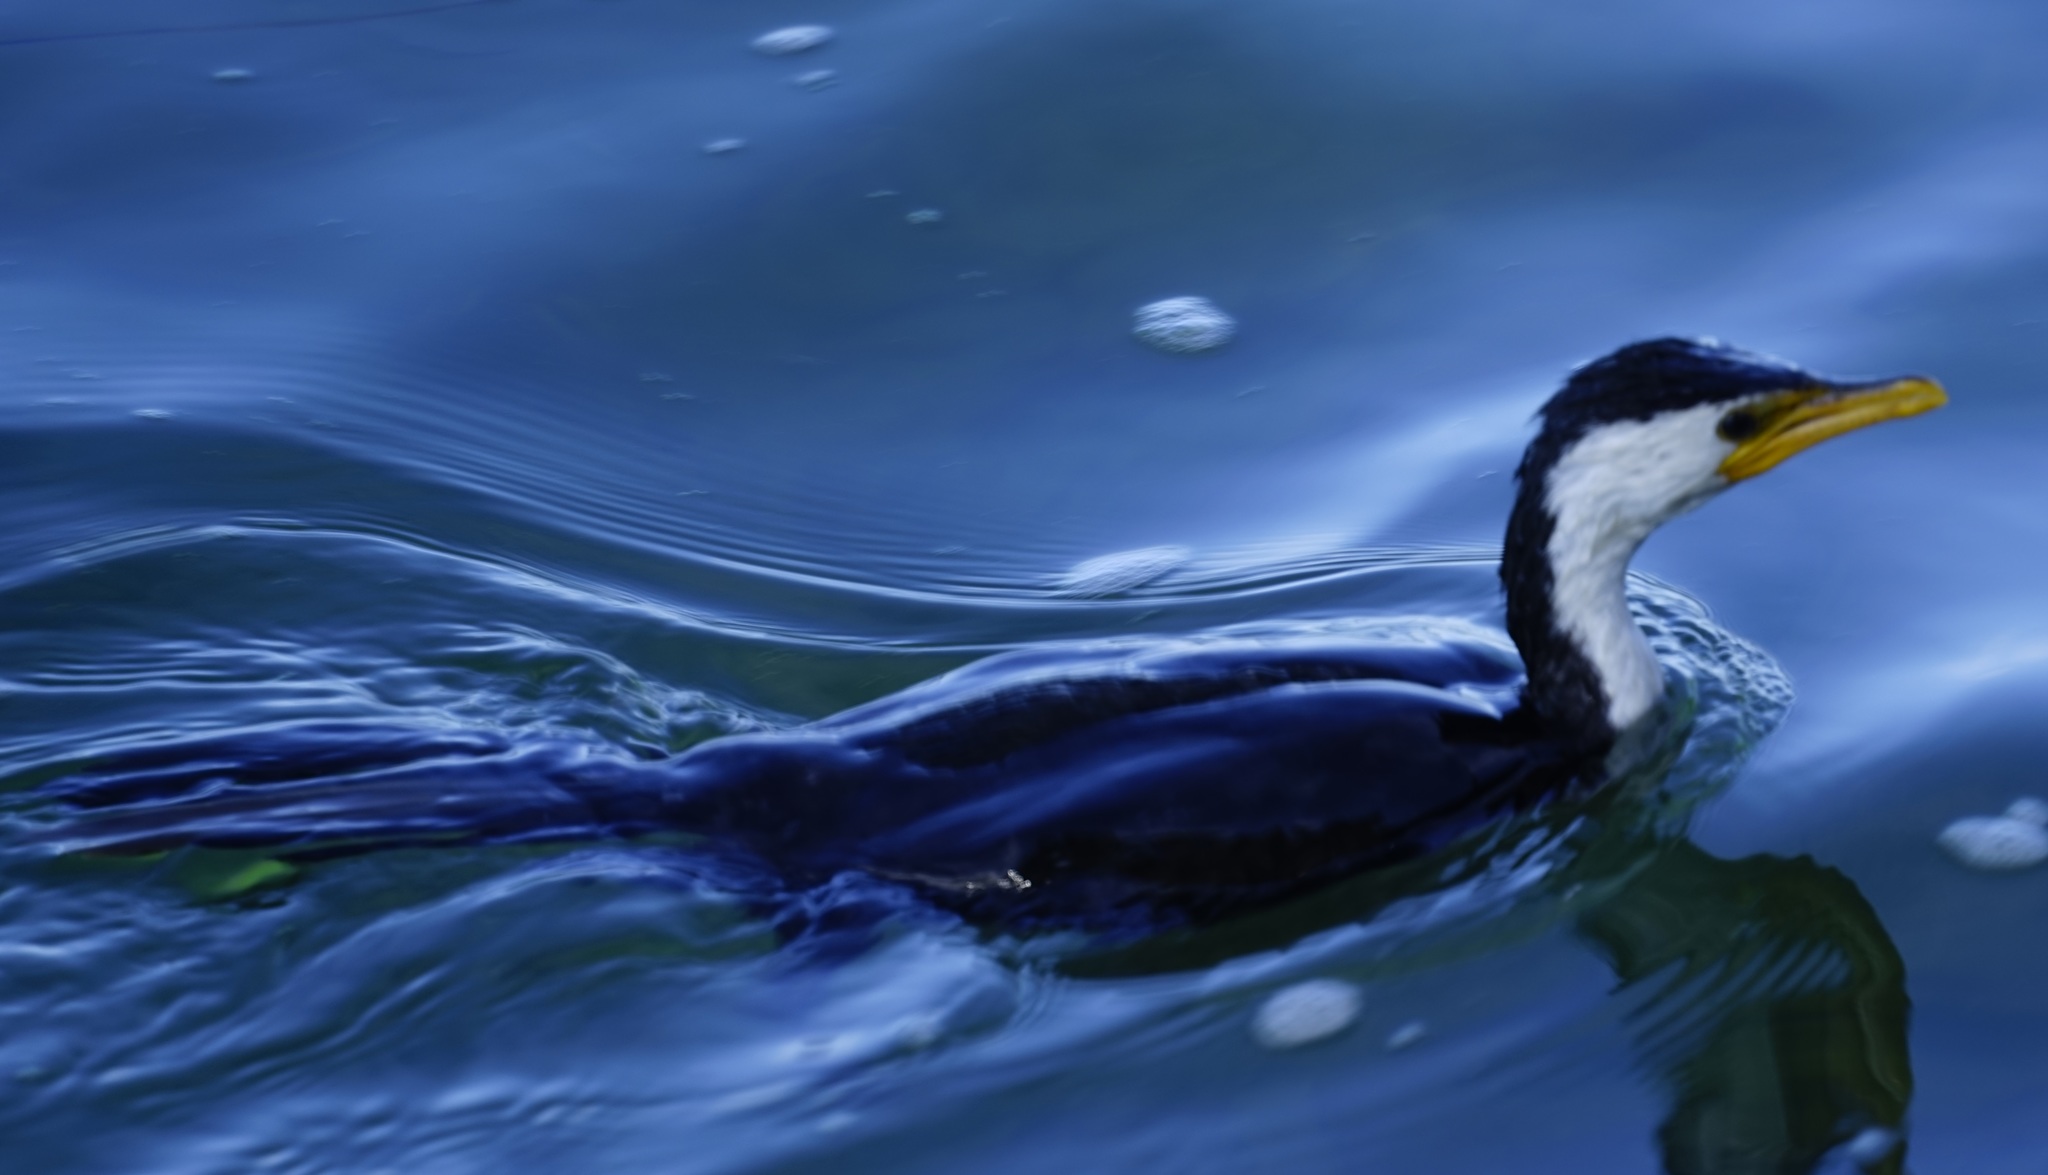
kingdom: Animalia
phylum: Chordata
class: Aves
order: Suliformes
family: Phalacrocoracidae
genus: Microcarbo
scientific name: Microcarbo melanoleucos
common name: Little pied cormorant
